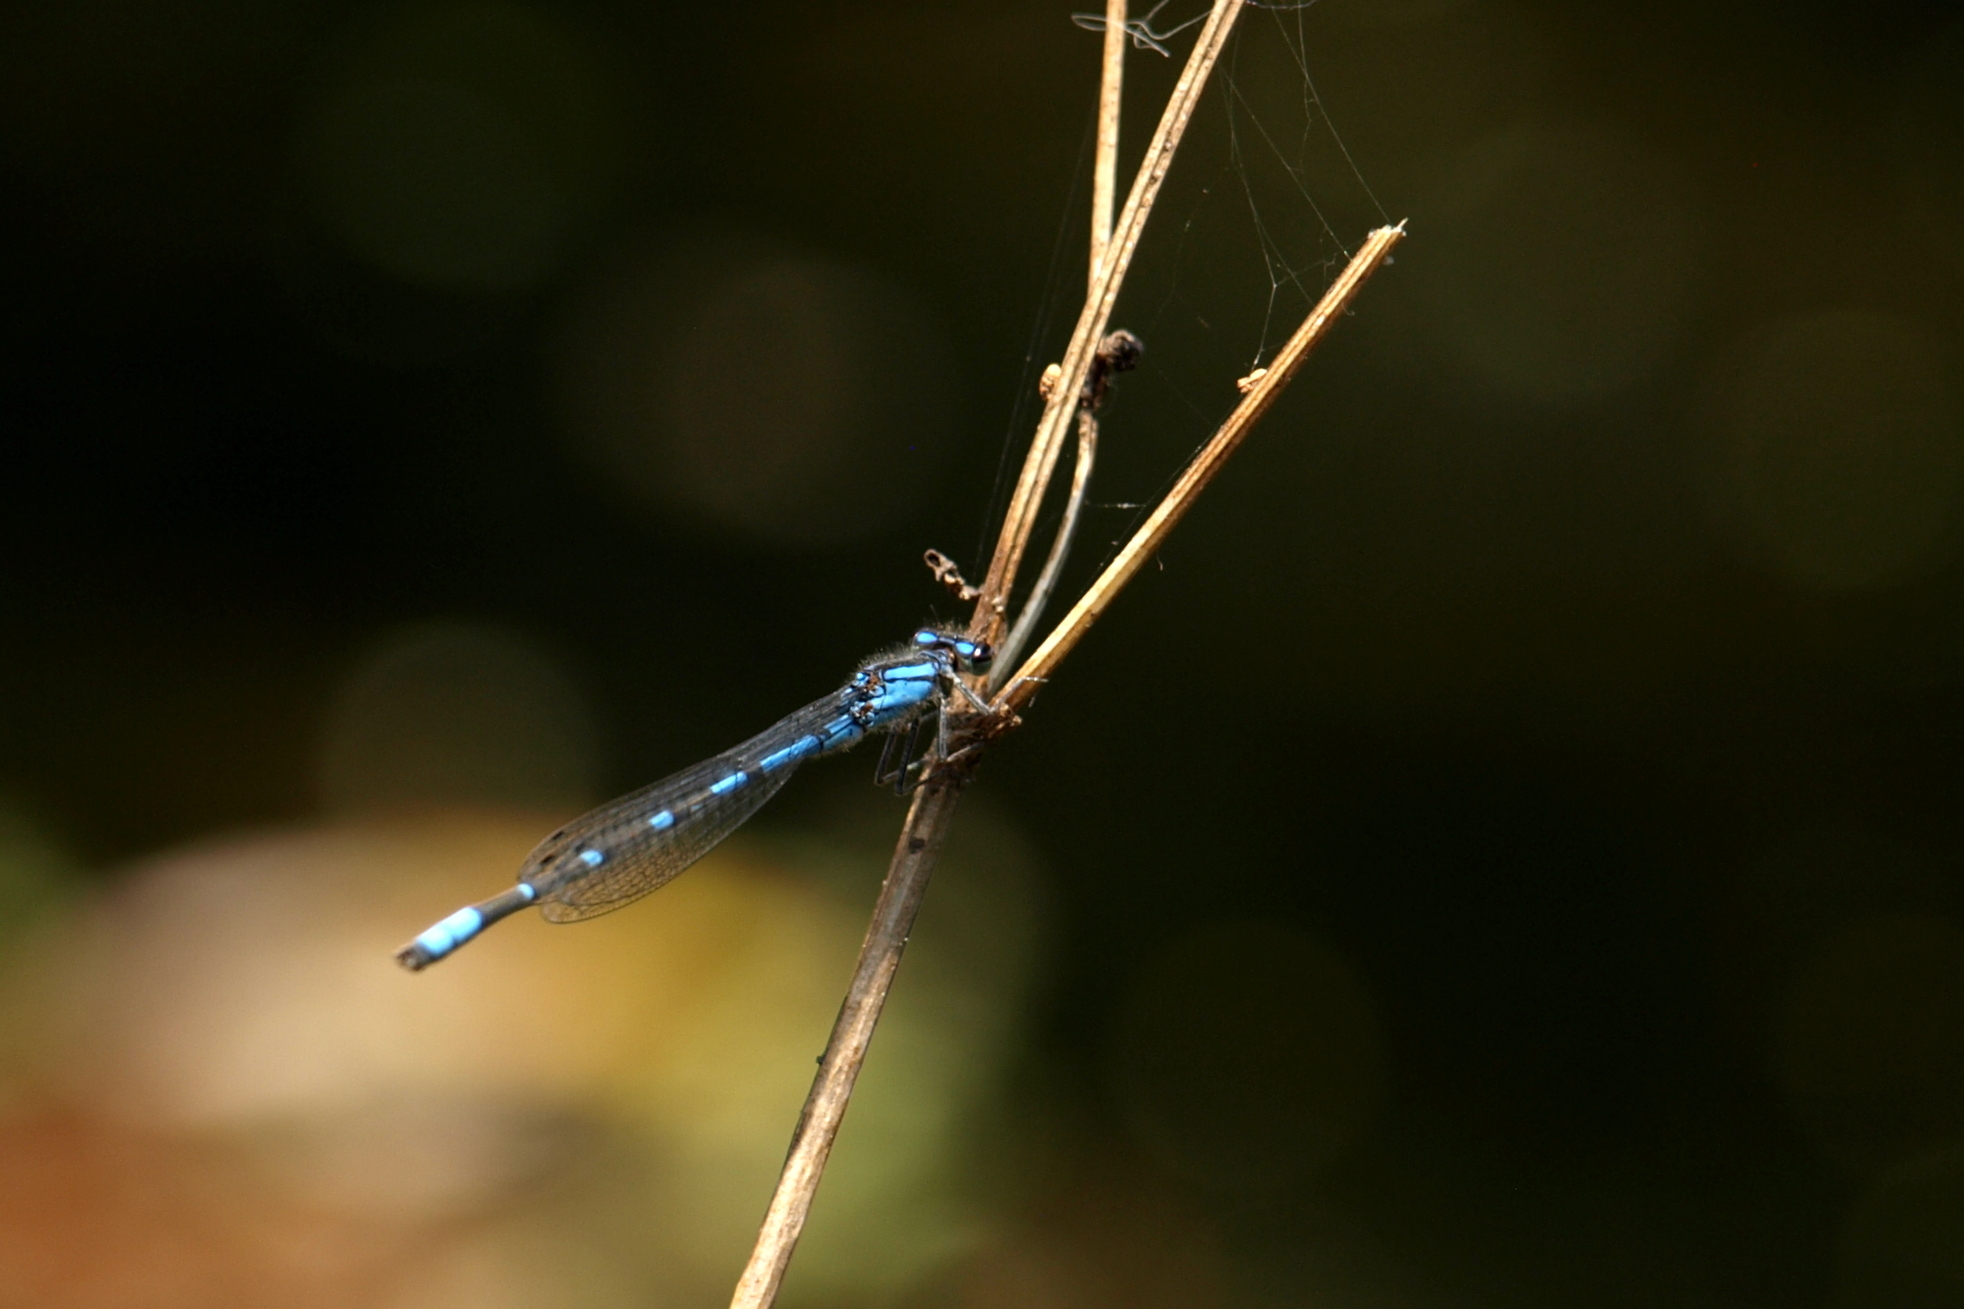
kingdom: Animalia
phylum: Arthropoda
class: Insecta
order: Odonata
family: Coenagrionidae
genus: Enallagma
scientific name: Enallagma praevarum
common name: Arroyo bluet
